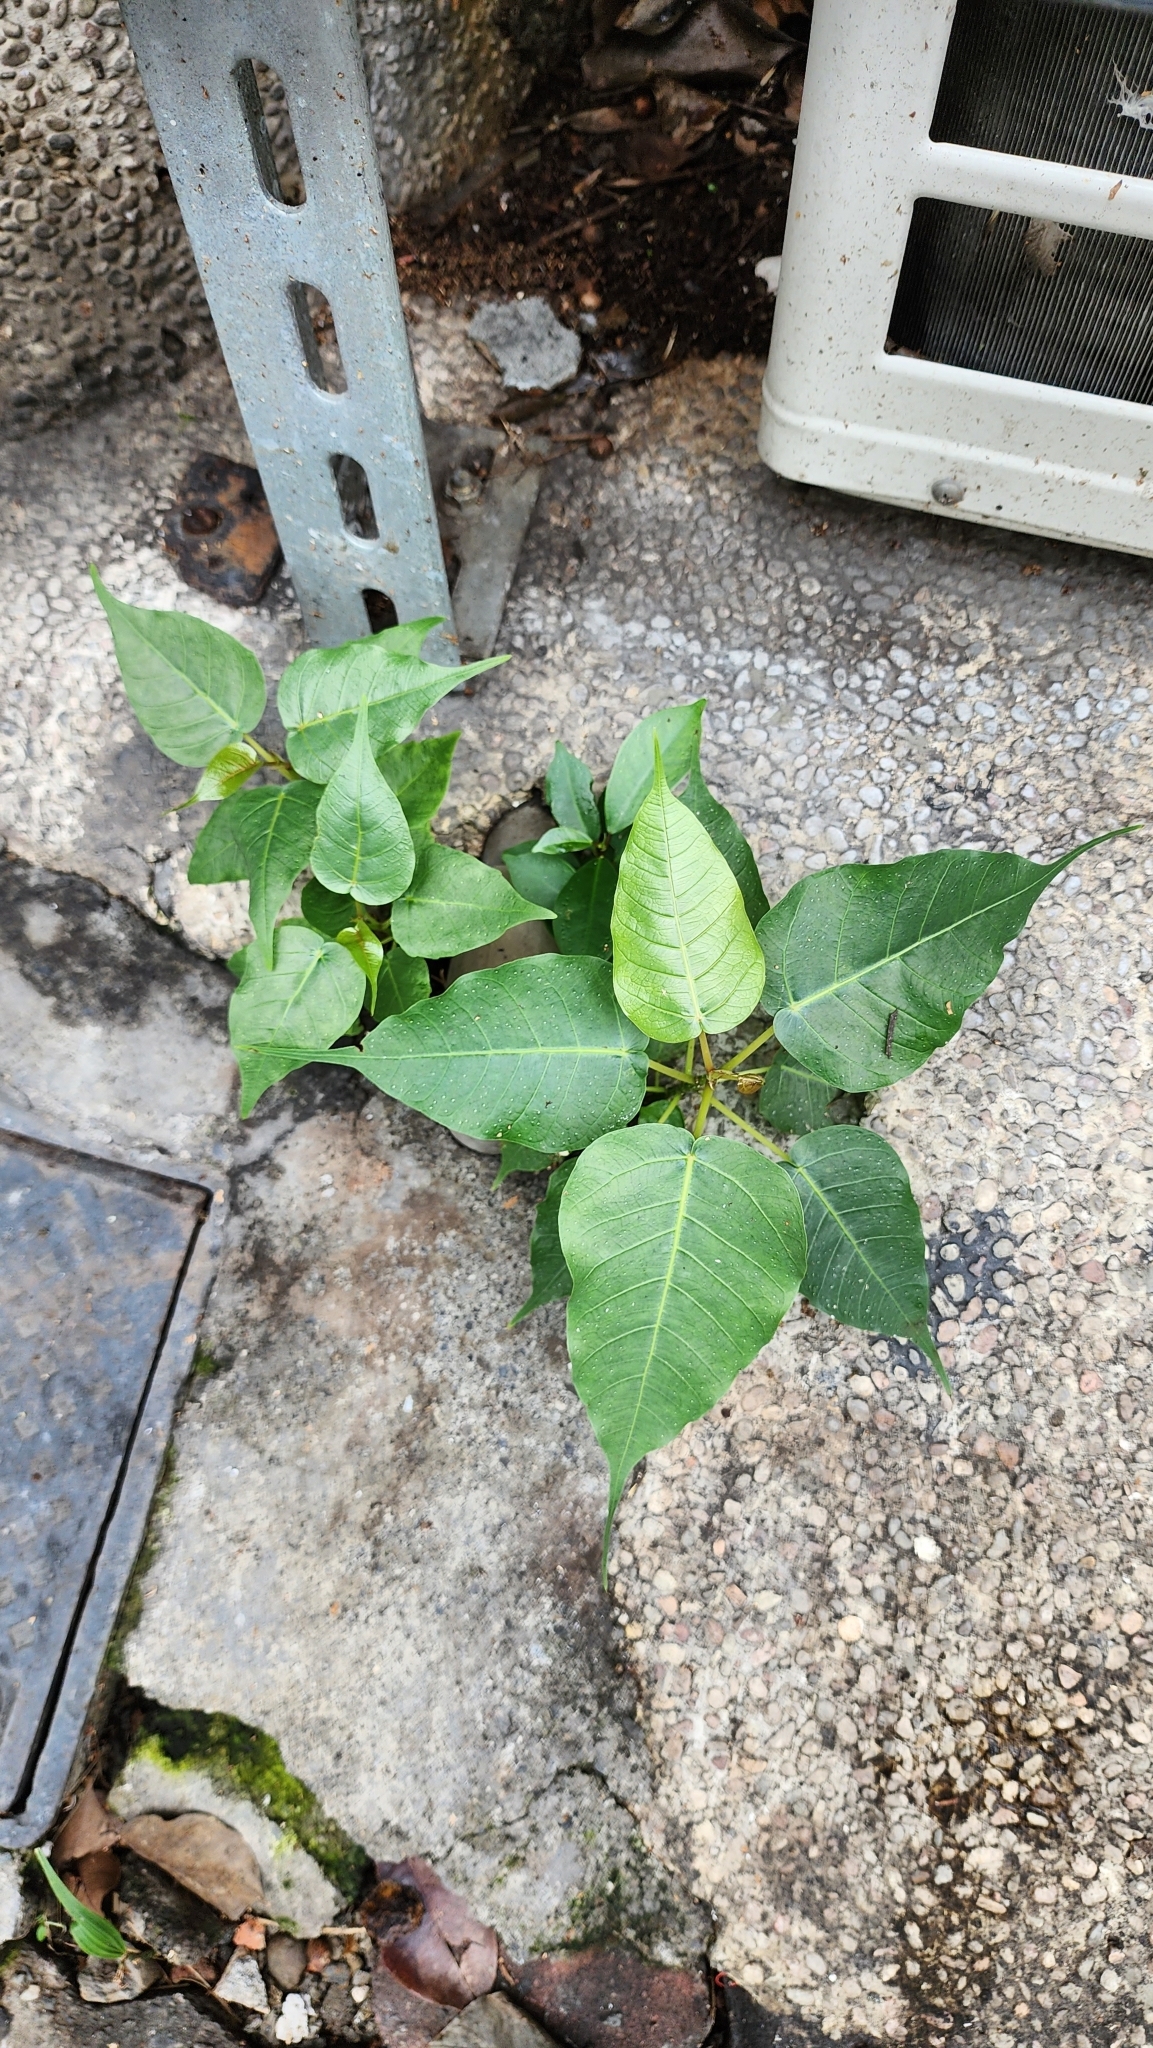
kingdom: Plantae
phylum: Tracheophyta
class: Magnoliopsida
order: Rosales
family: Moraceae
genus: Ficus
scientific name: Ficus religiosa
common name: Bodhi tree
